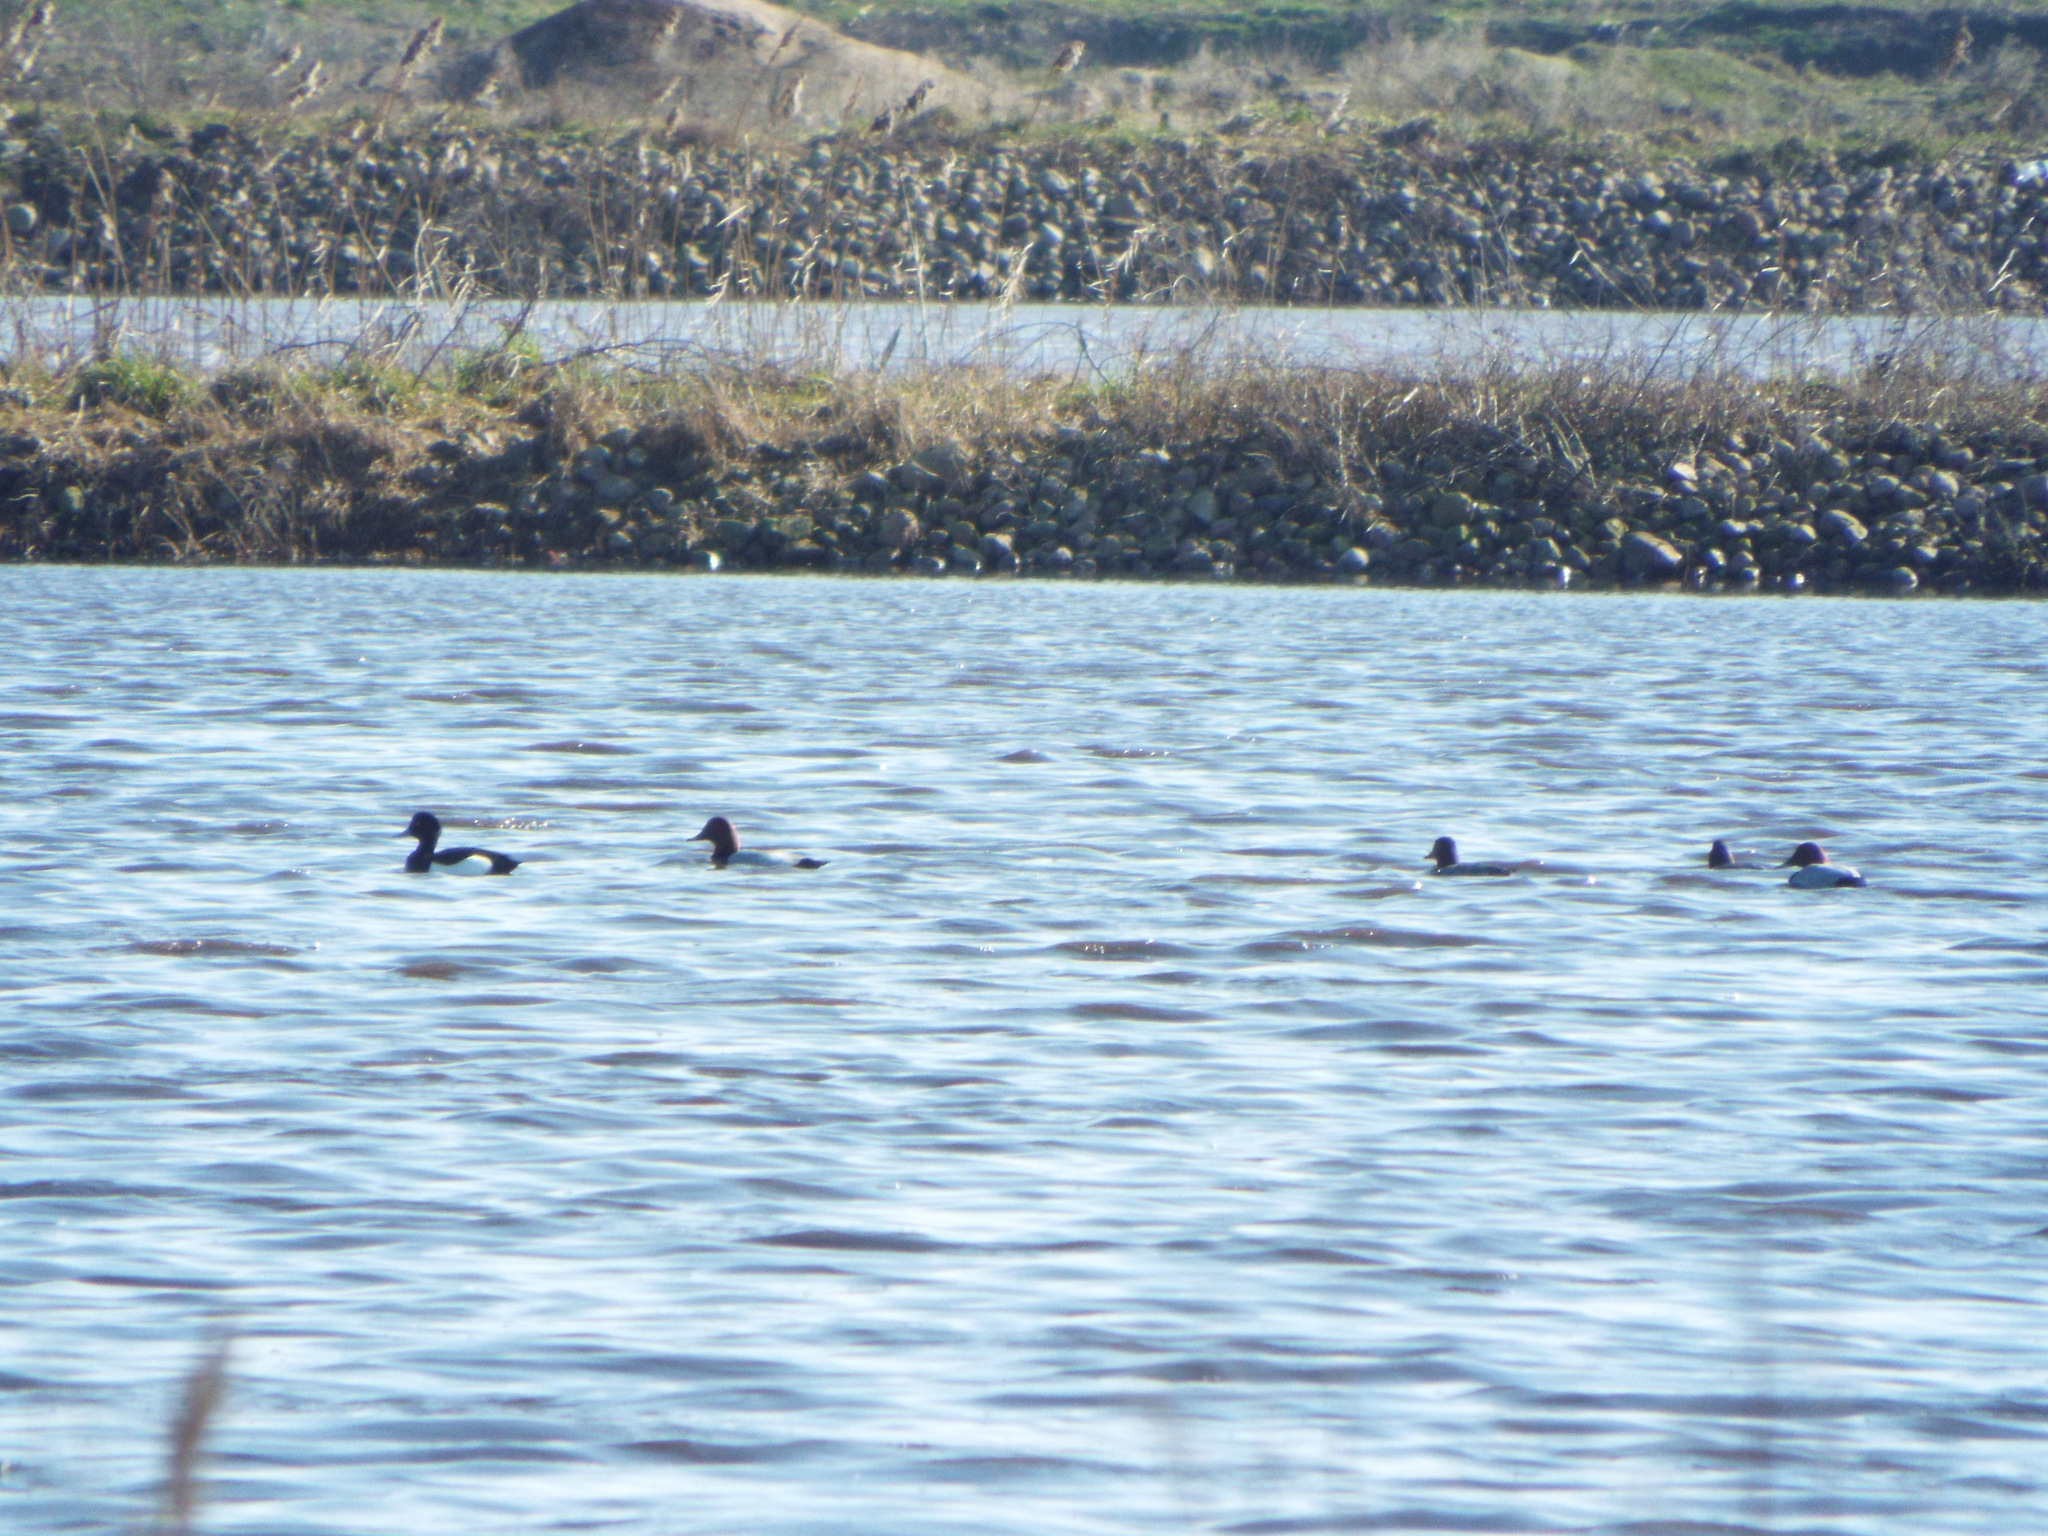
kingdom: Animalia
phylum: Chordata
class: Aves
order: Anseriformes
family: Anatidae
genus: Aythya
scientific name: Aythya fuligula
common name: Tufted duck
